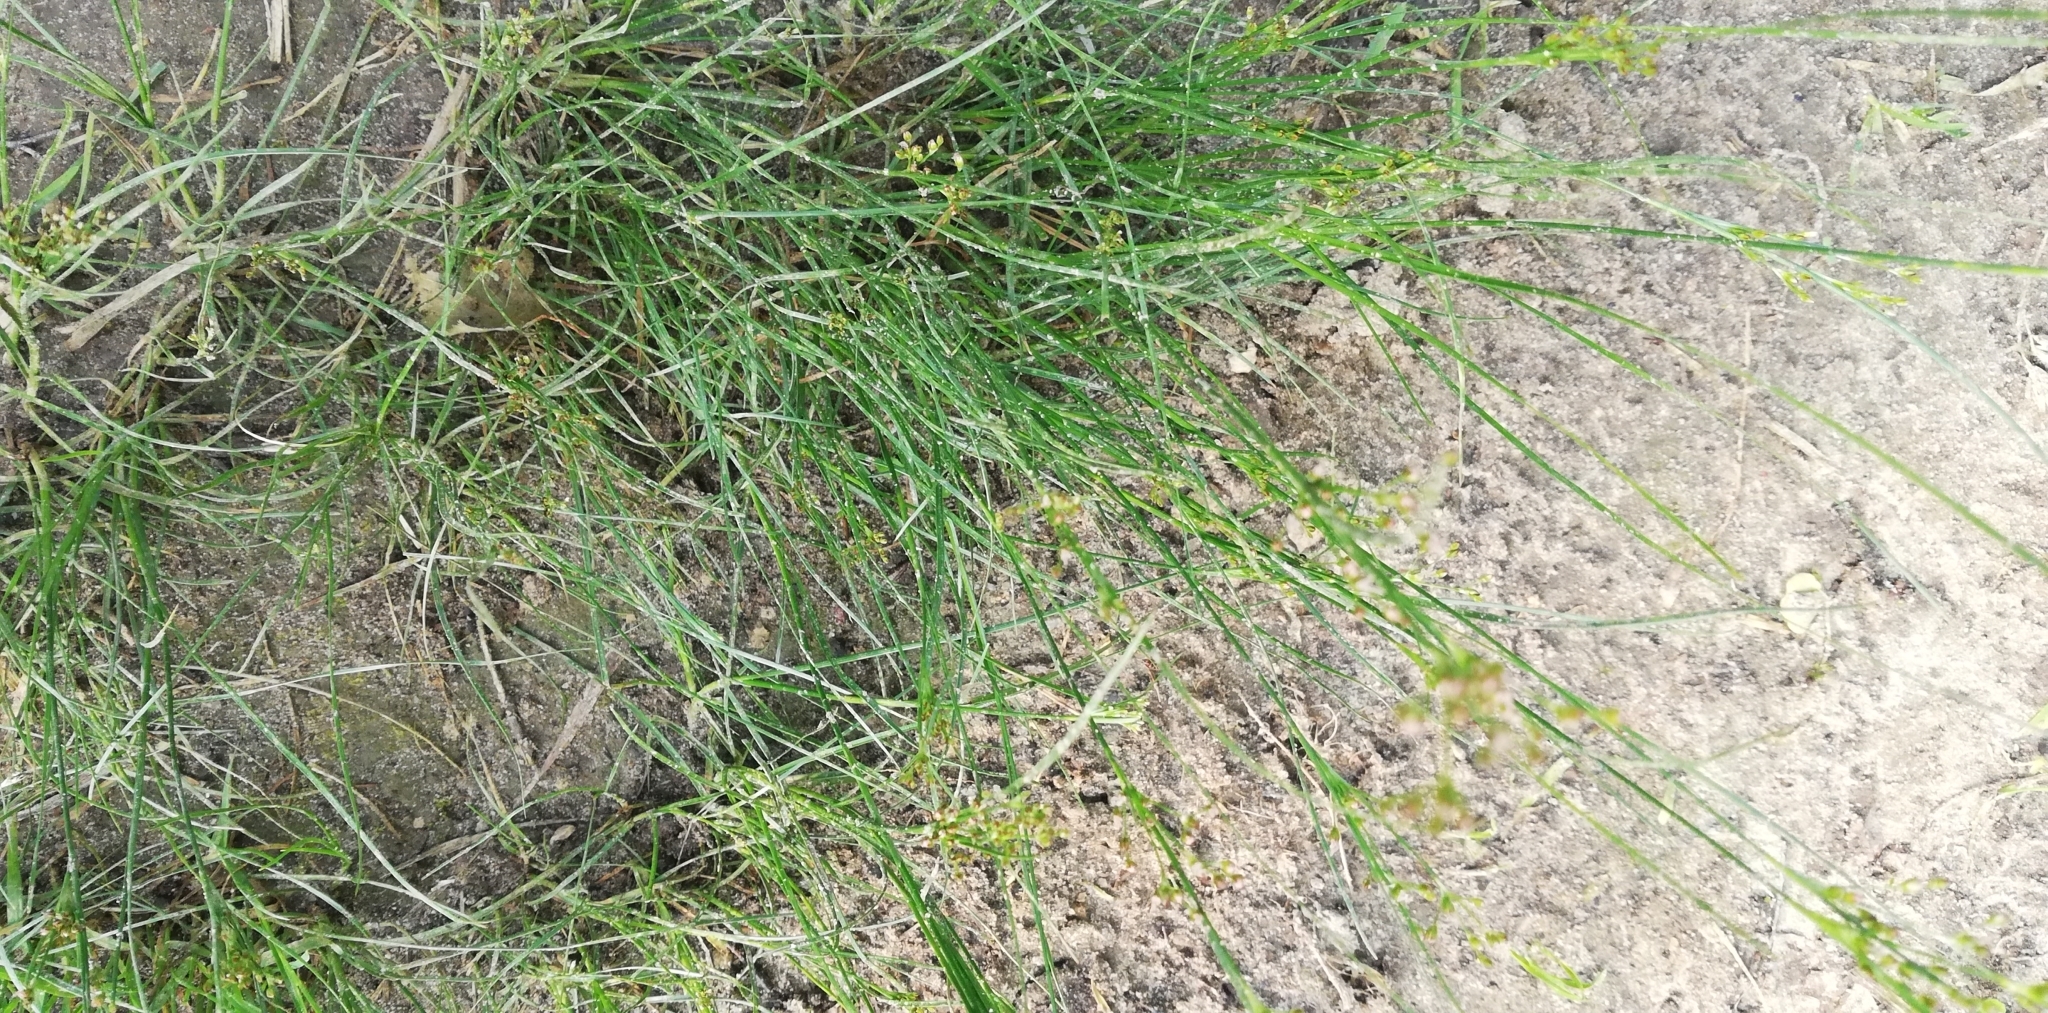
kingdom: Plantae
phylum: Tracheophyta
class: Liliopsida
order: Poales
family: Juncaceae
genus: Juncus
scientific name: Juncus compressus
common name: Round-fruited rush
